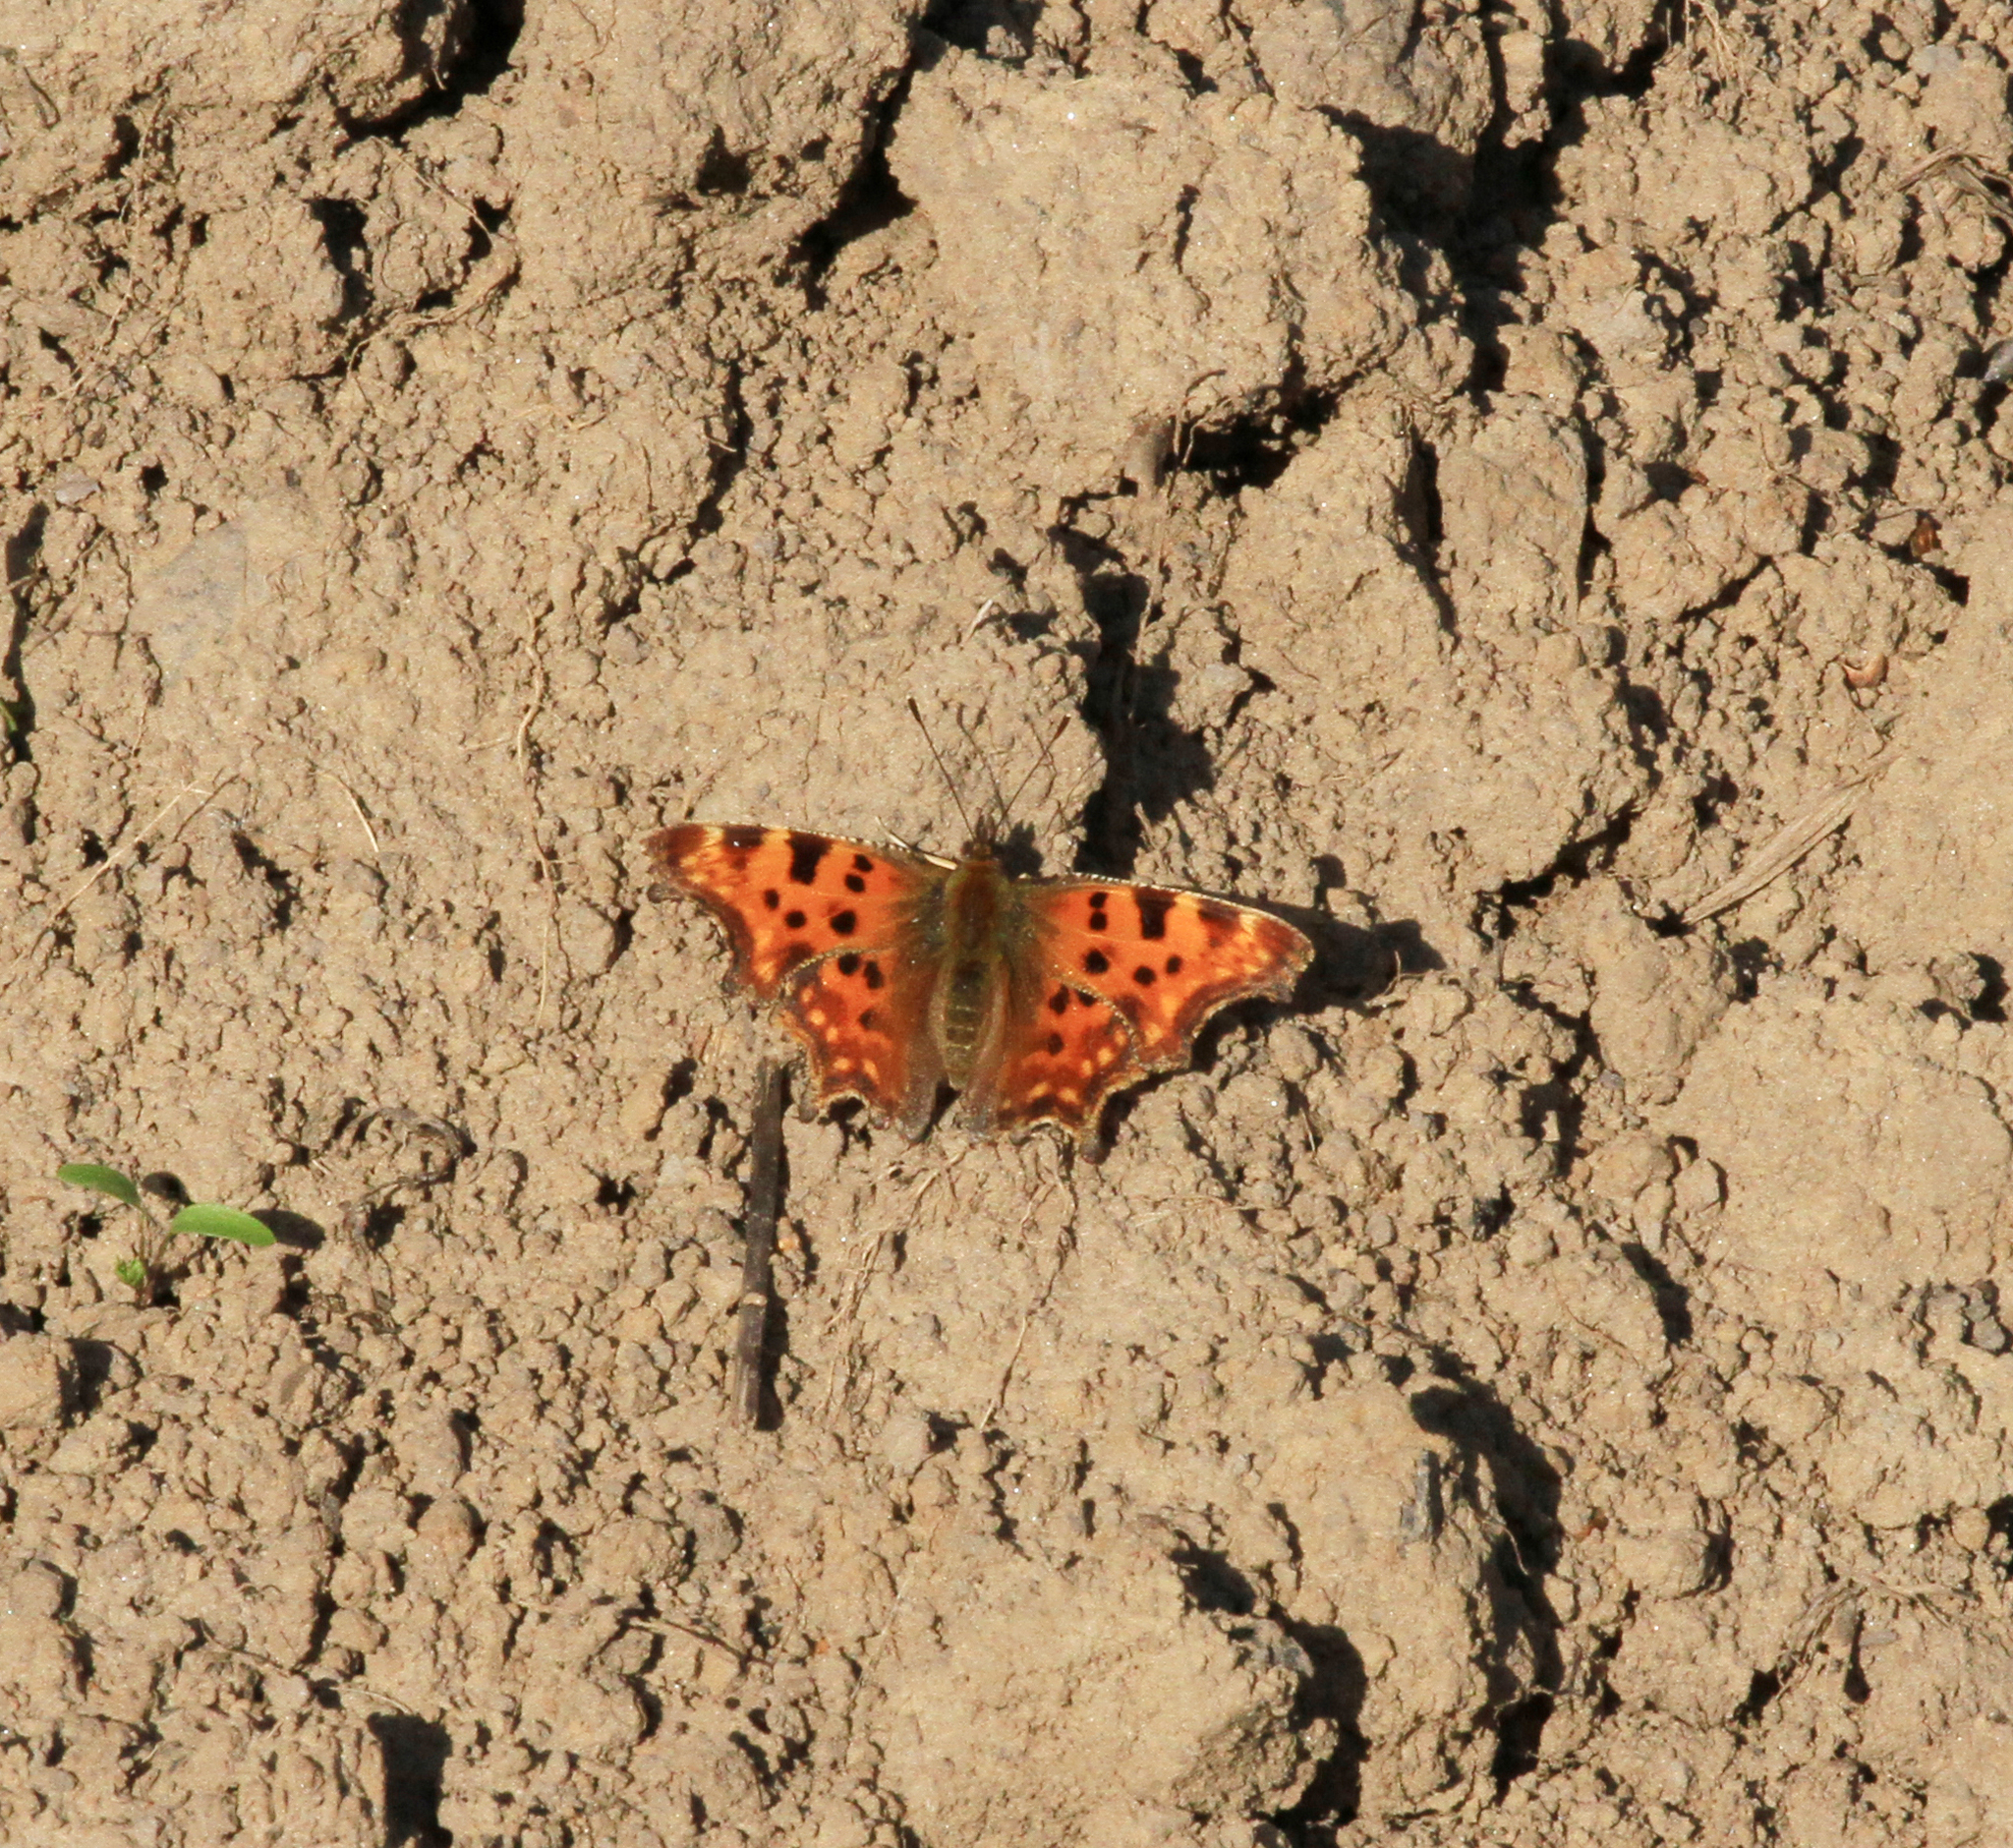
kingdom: Animalia
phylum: Arthropoda
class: Insecta
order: Lepidoptera
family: Nymphalidae
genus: Polygonia
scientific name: Polygonia c-album
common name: Comma
